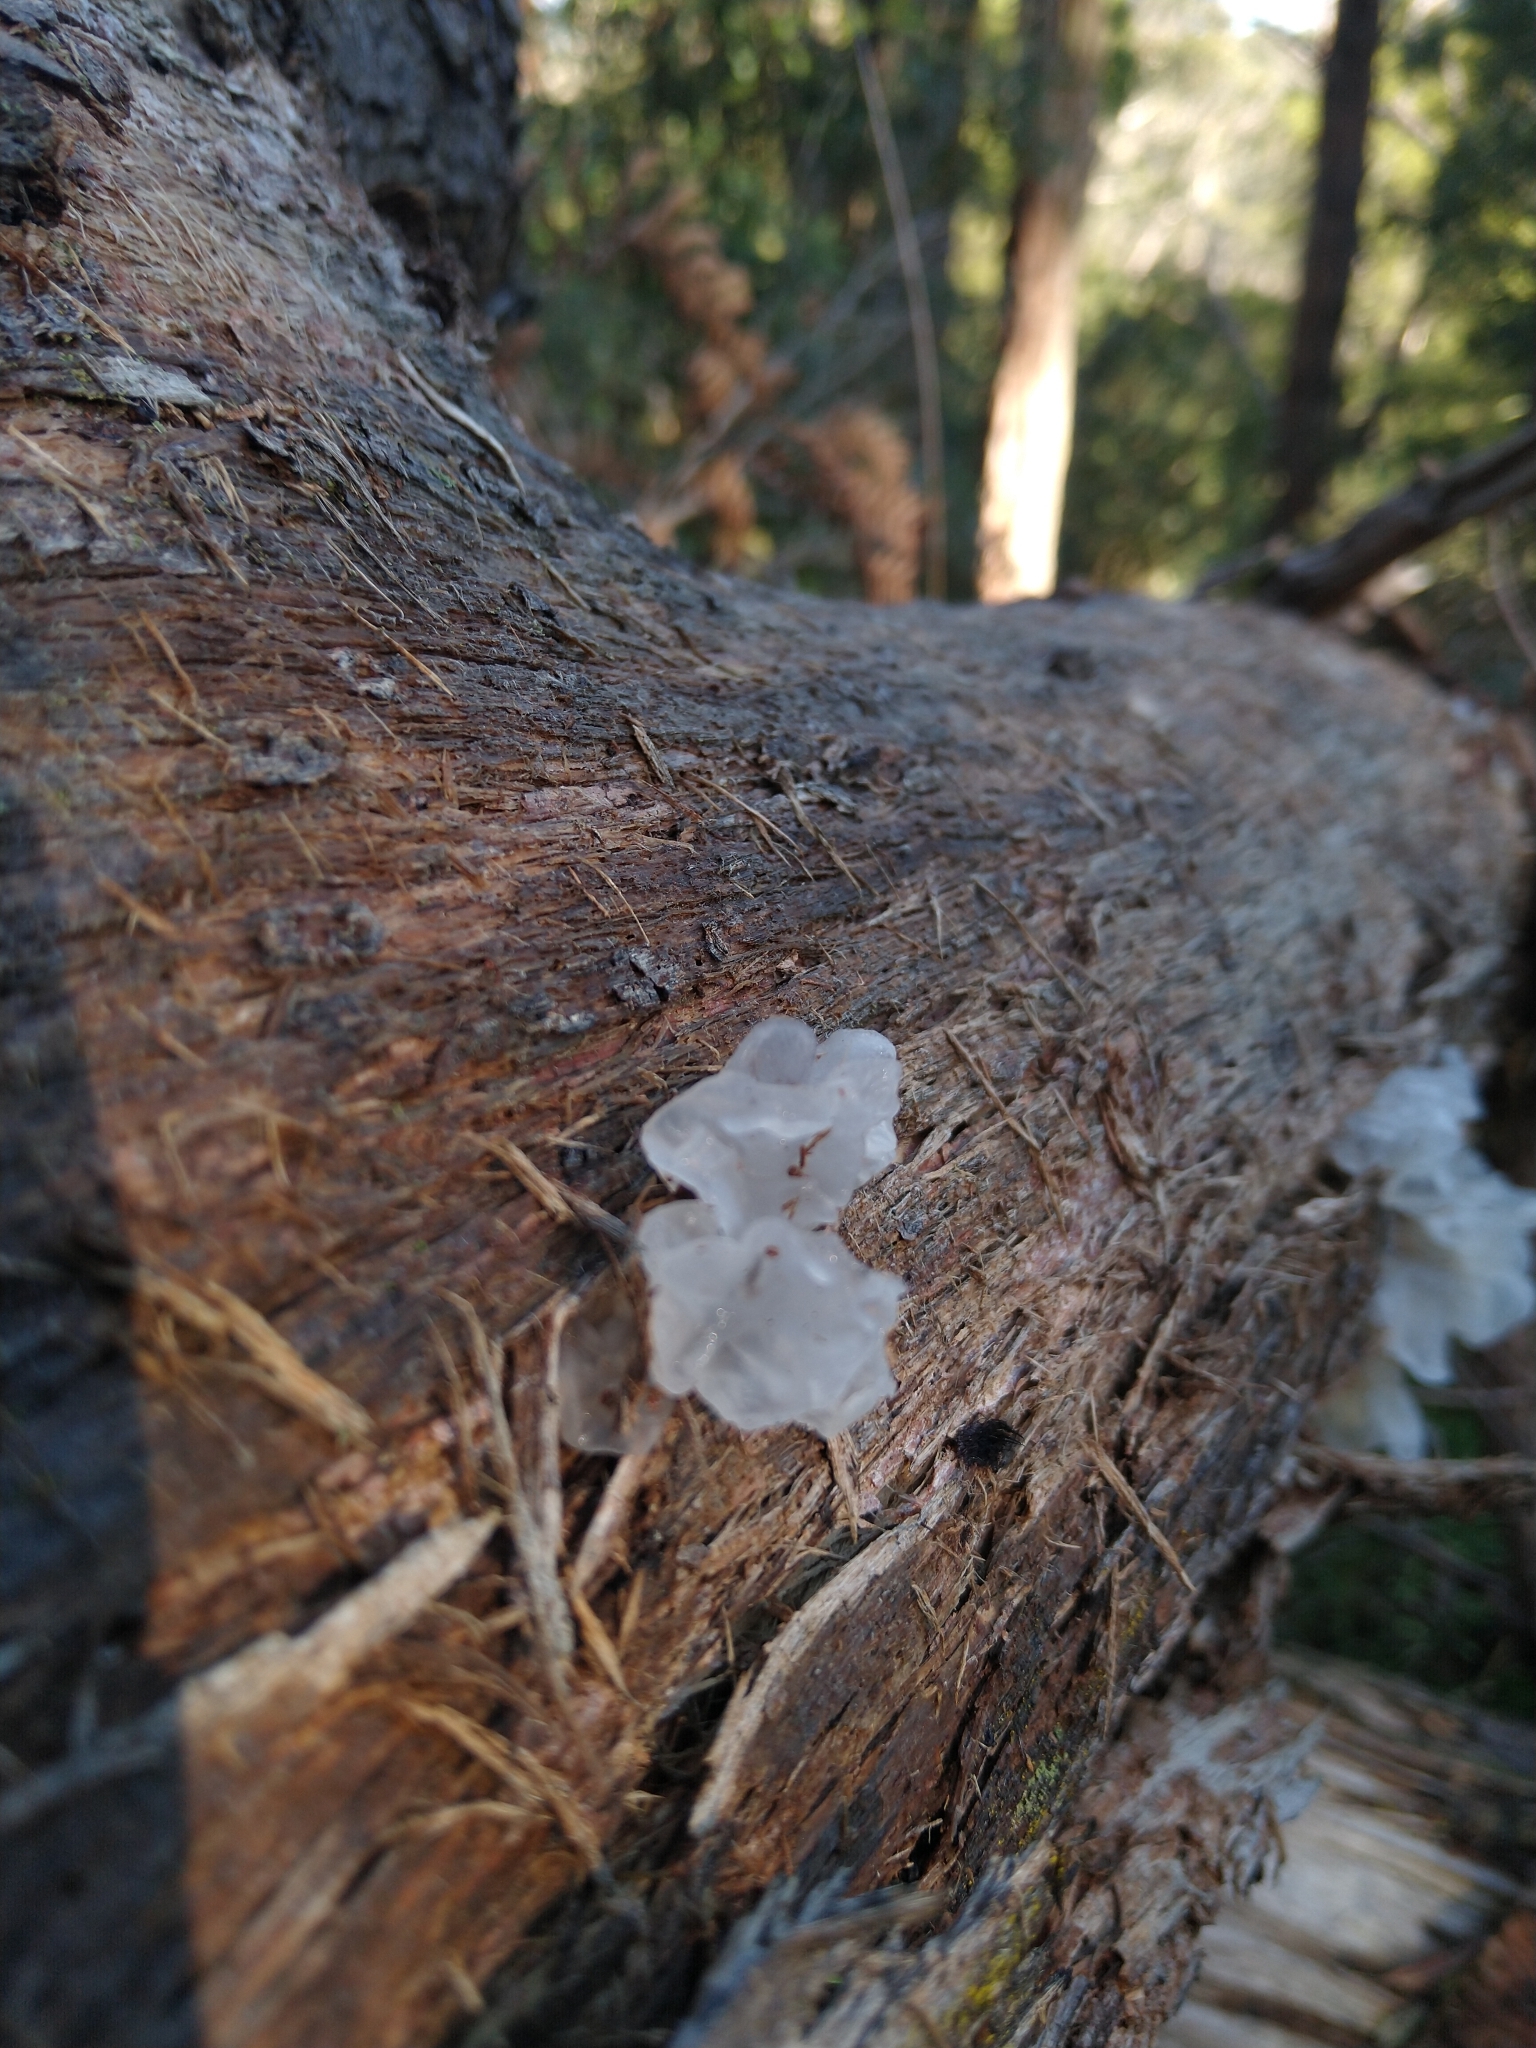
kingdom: Fungi
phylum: Basidiomycota
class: Tremellomycetes
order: Tremellales
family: Tremellaceae
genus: Tremella
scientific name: Tremella fuciformis
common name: Snow fungus
